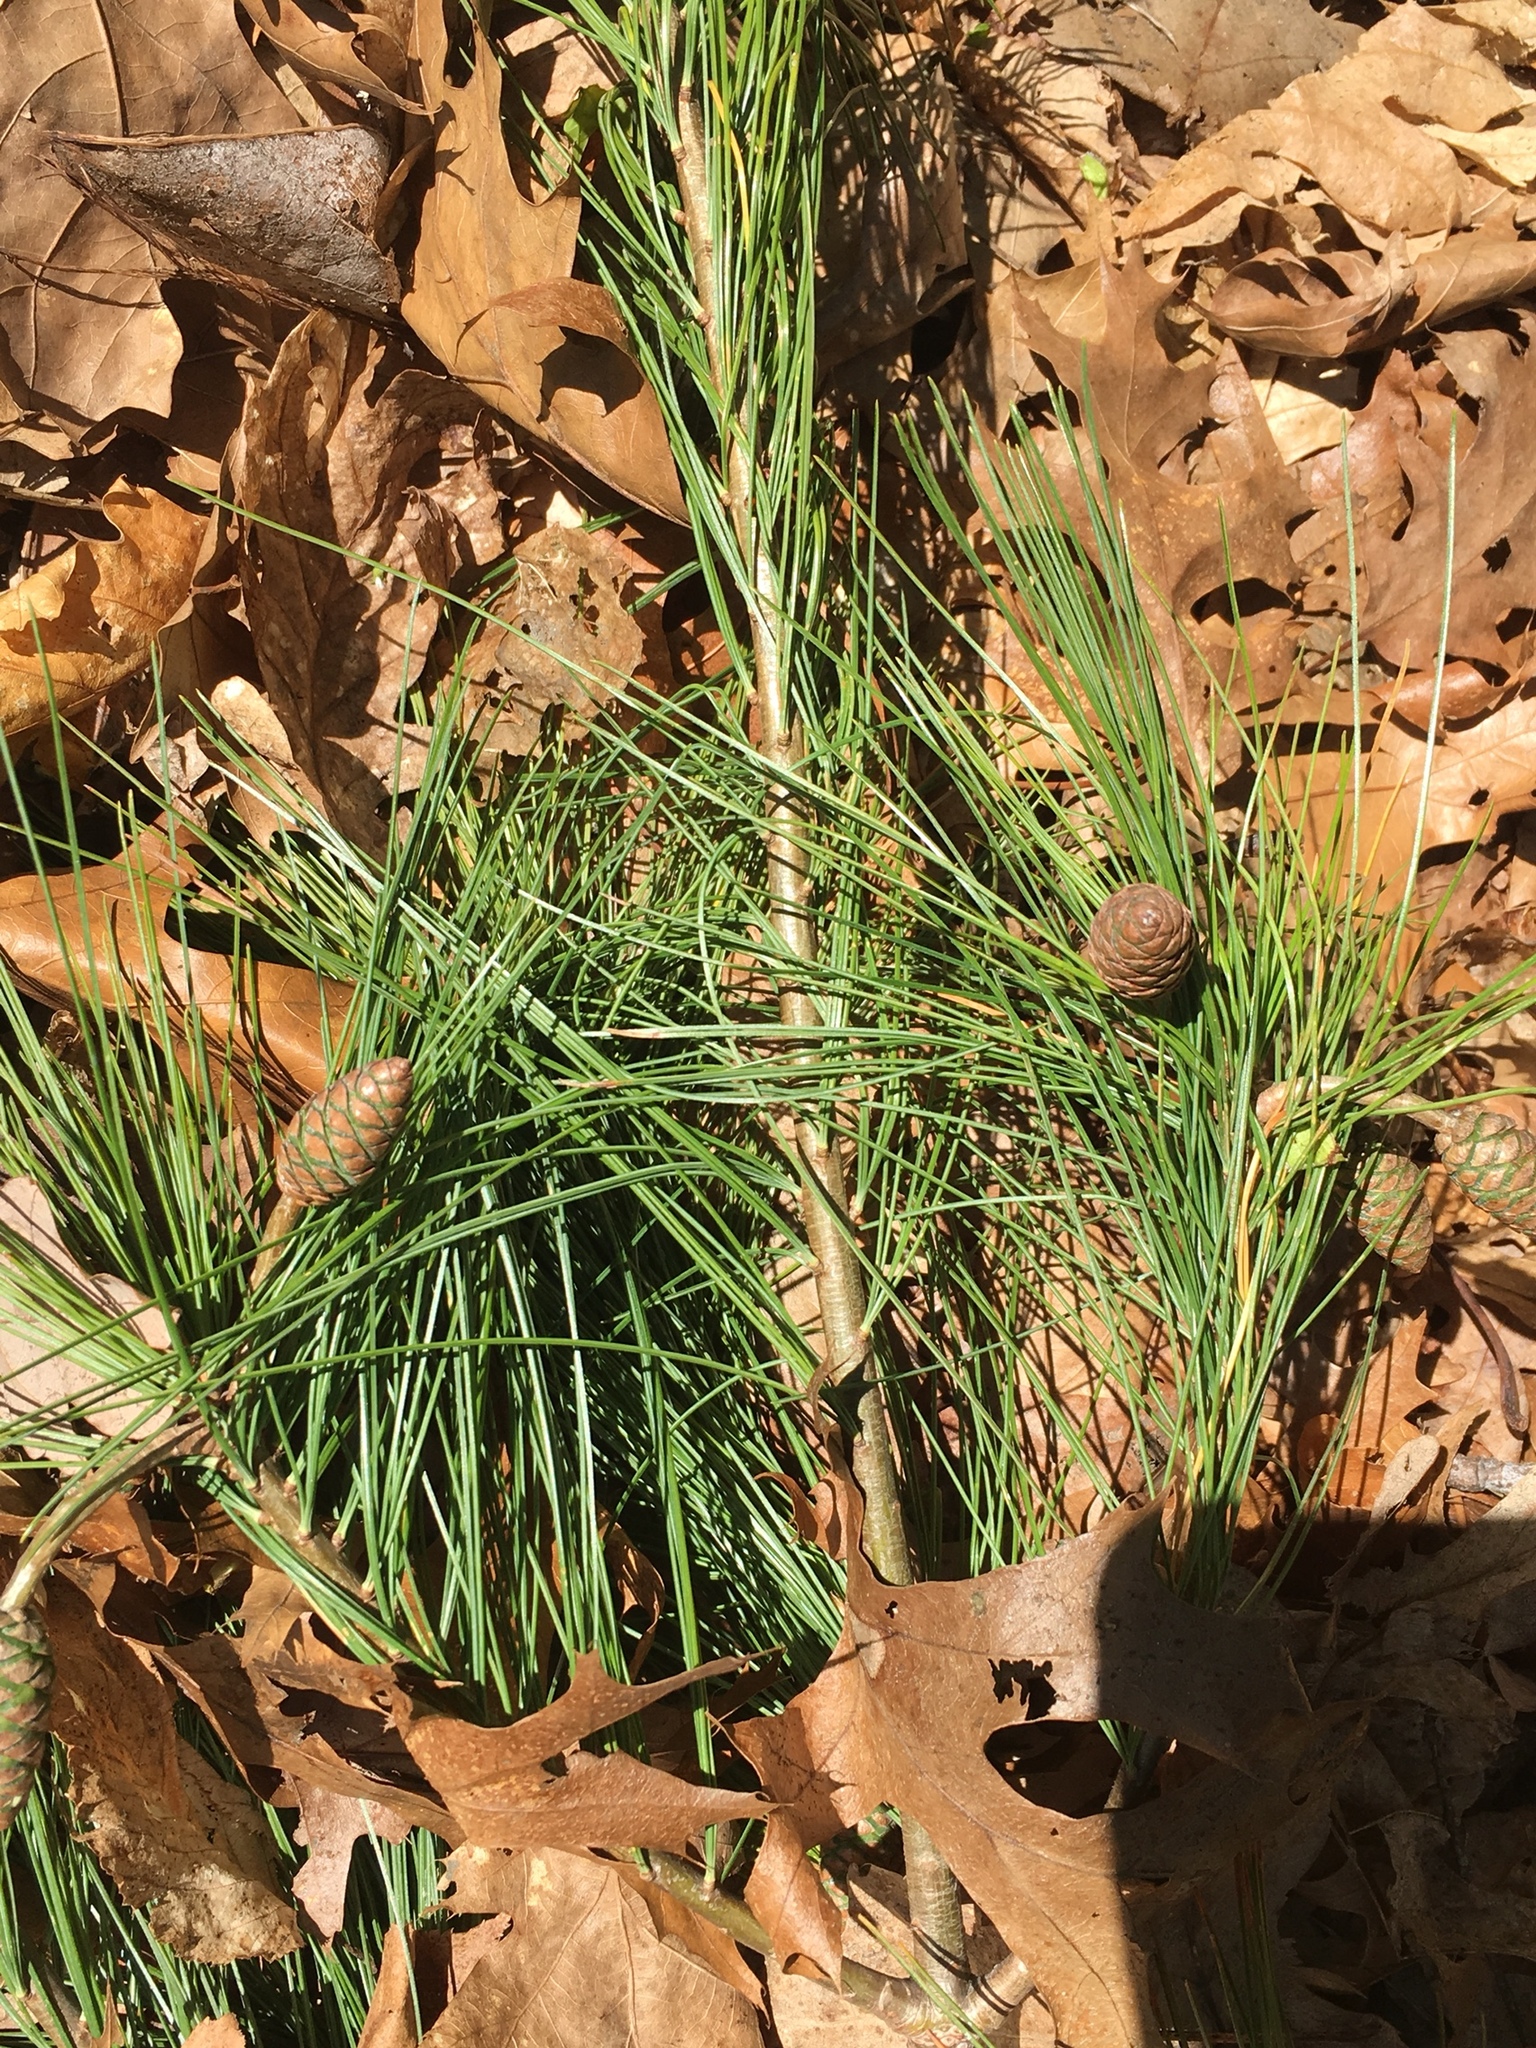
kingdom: Plantae
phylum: Tracheophyta
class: Pinopsida
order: Pinales
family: Pinaceae
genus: Pinus
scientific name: Pinus rigida
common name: Pitch pine
